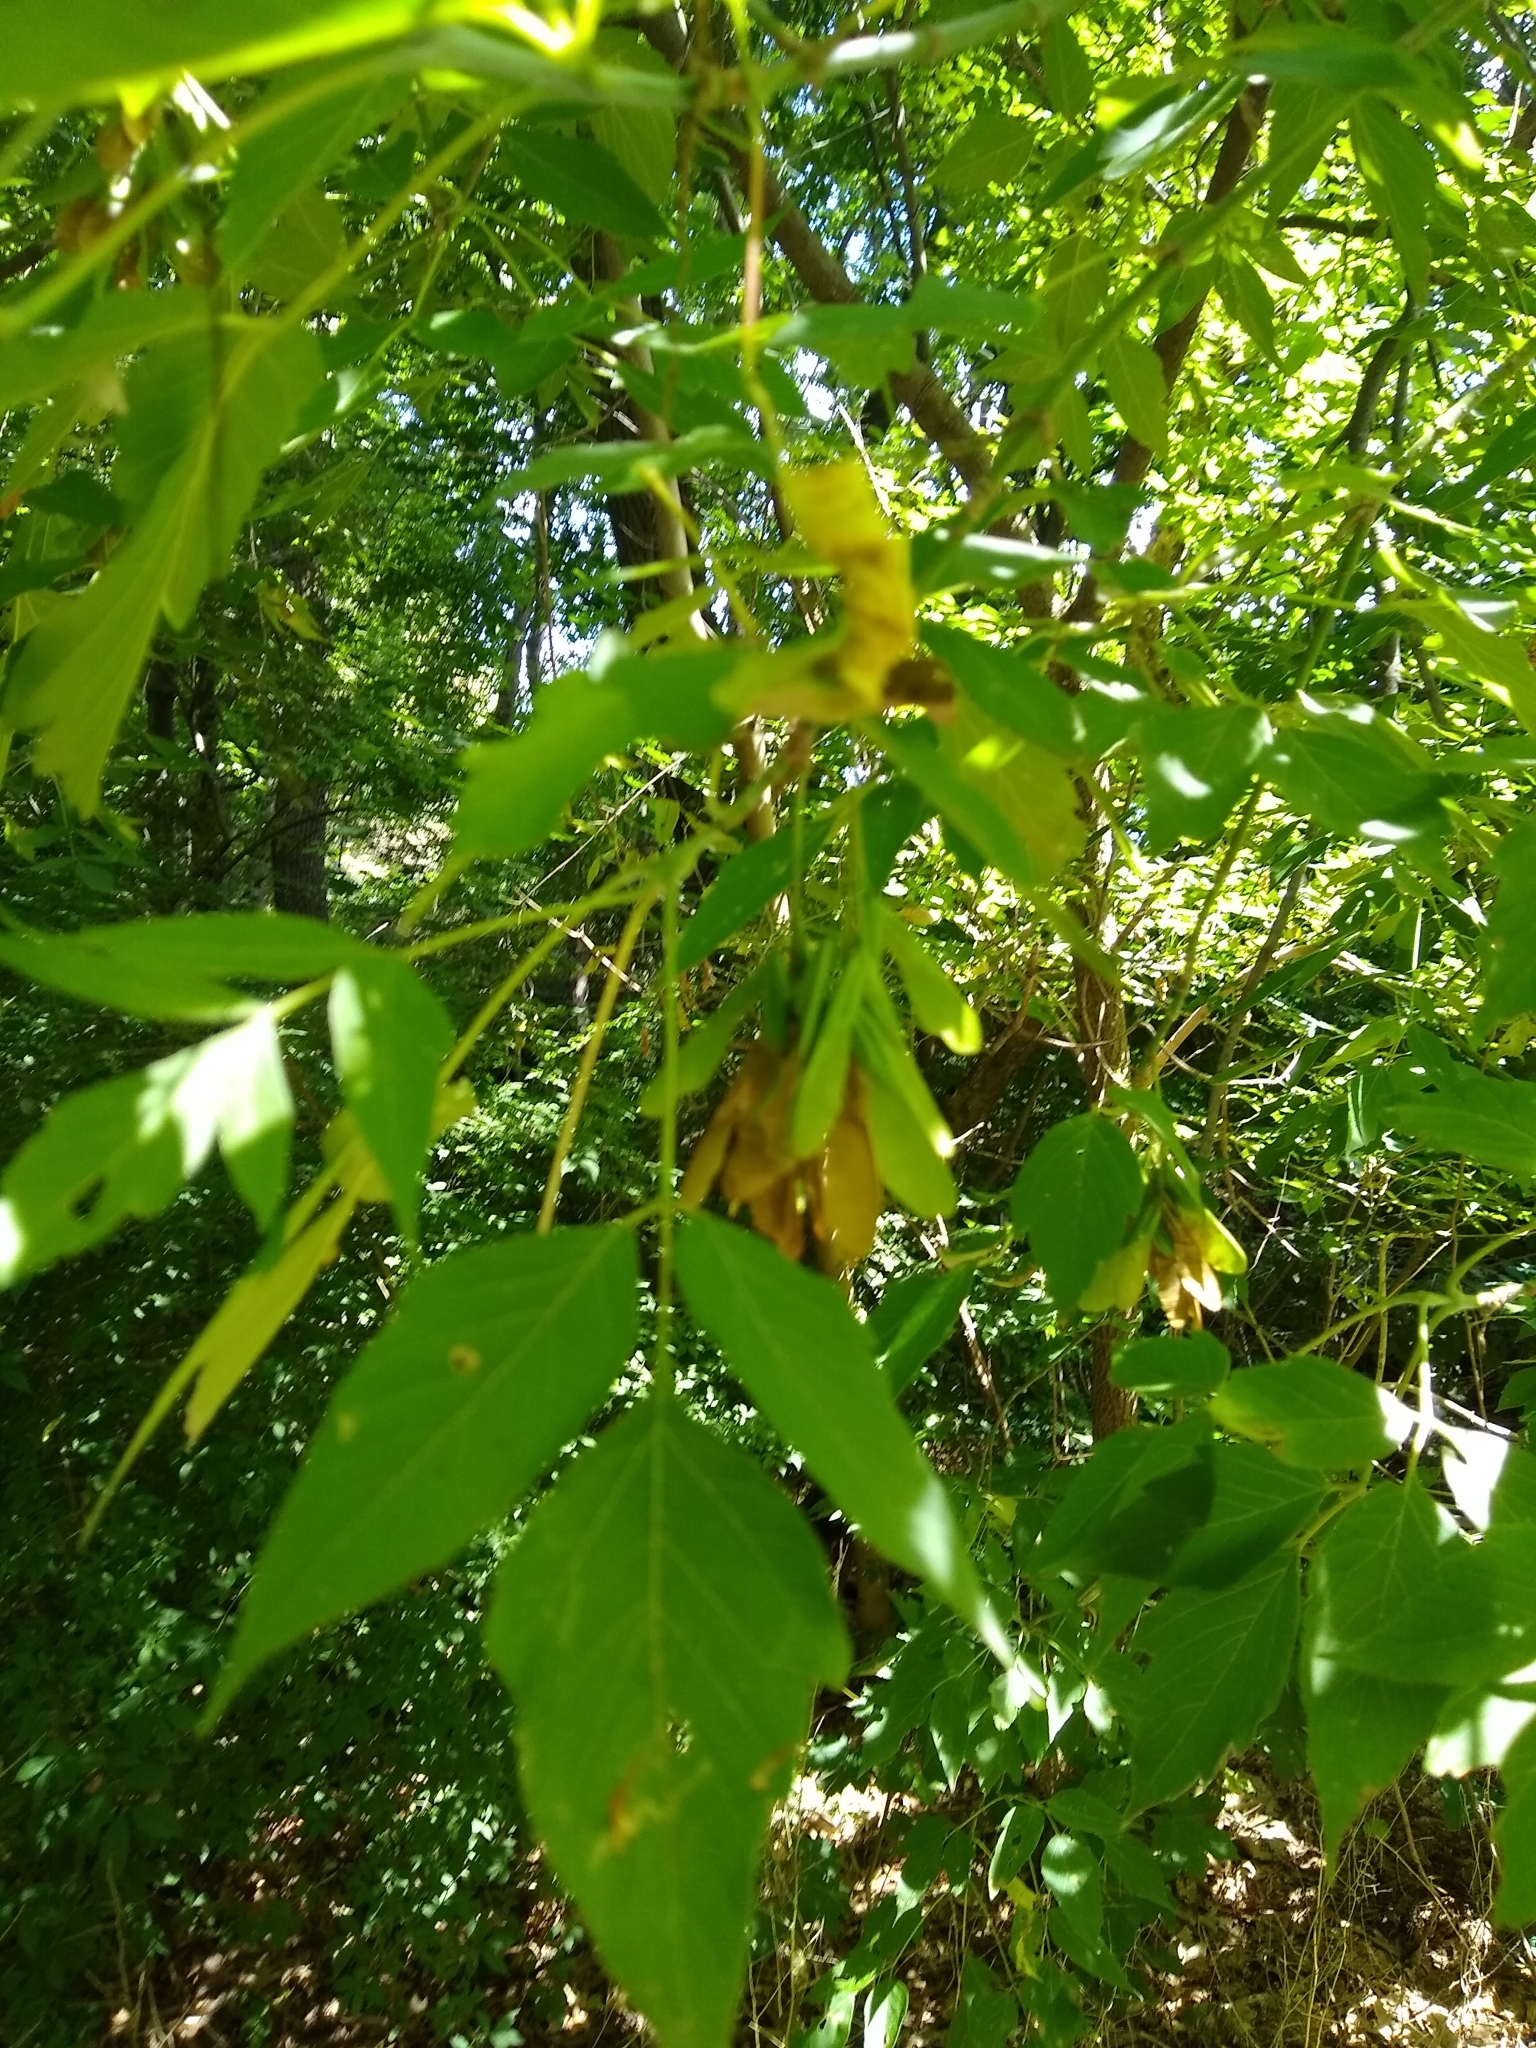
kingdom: Plantae
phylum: Tracheophyta
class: Magnoliopsida
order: Sapindales
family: Sapindaceae
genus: Acer
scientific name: Acer negundo
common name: Ashleaf maple
